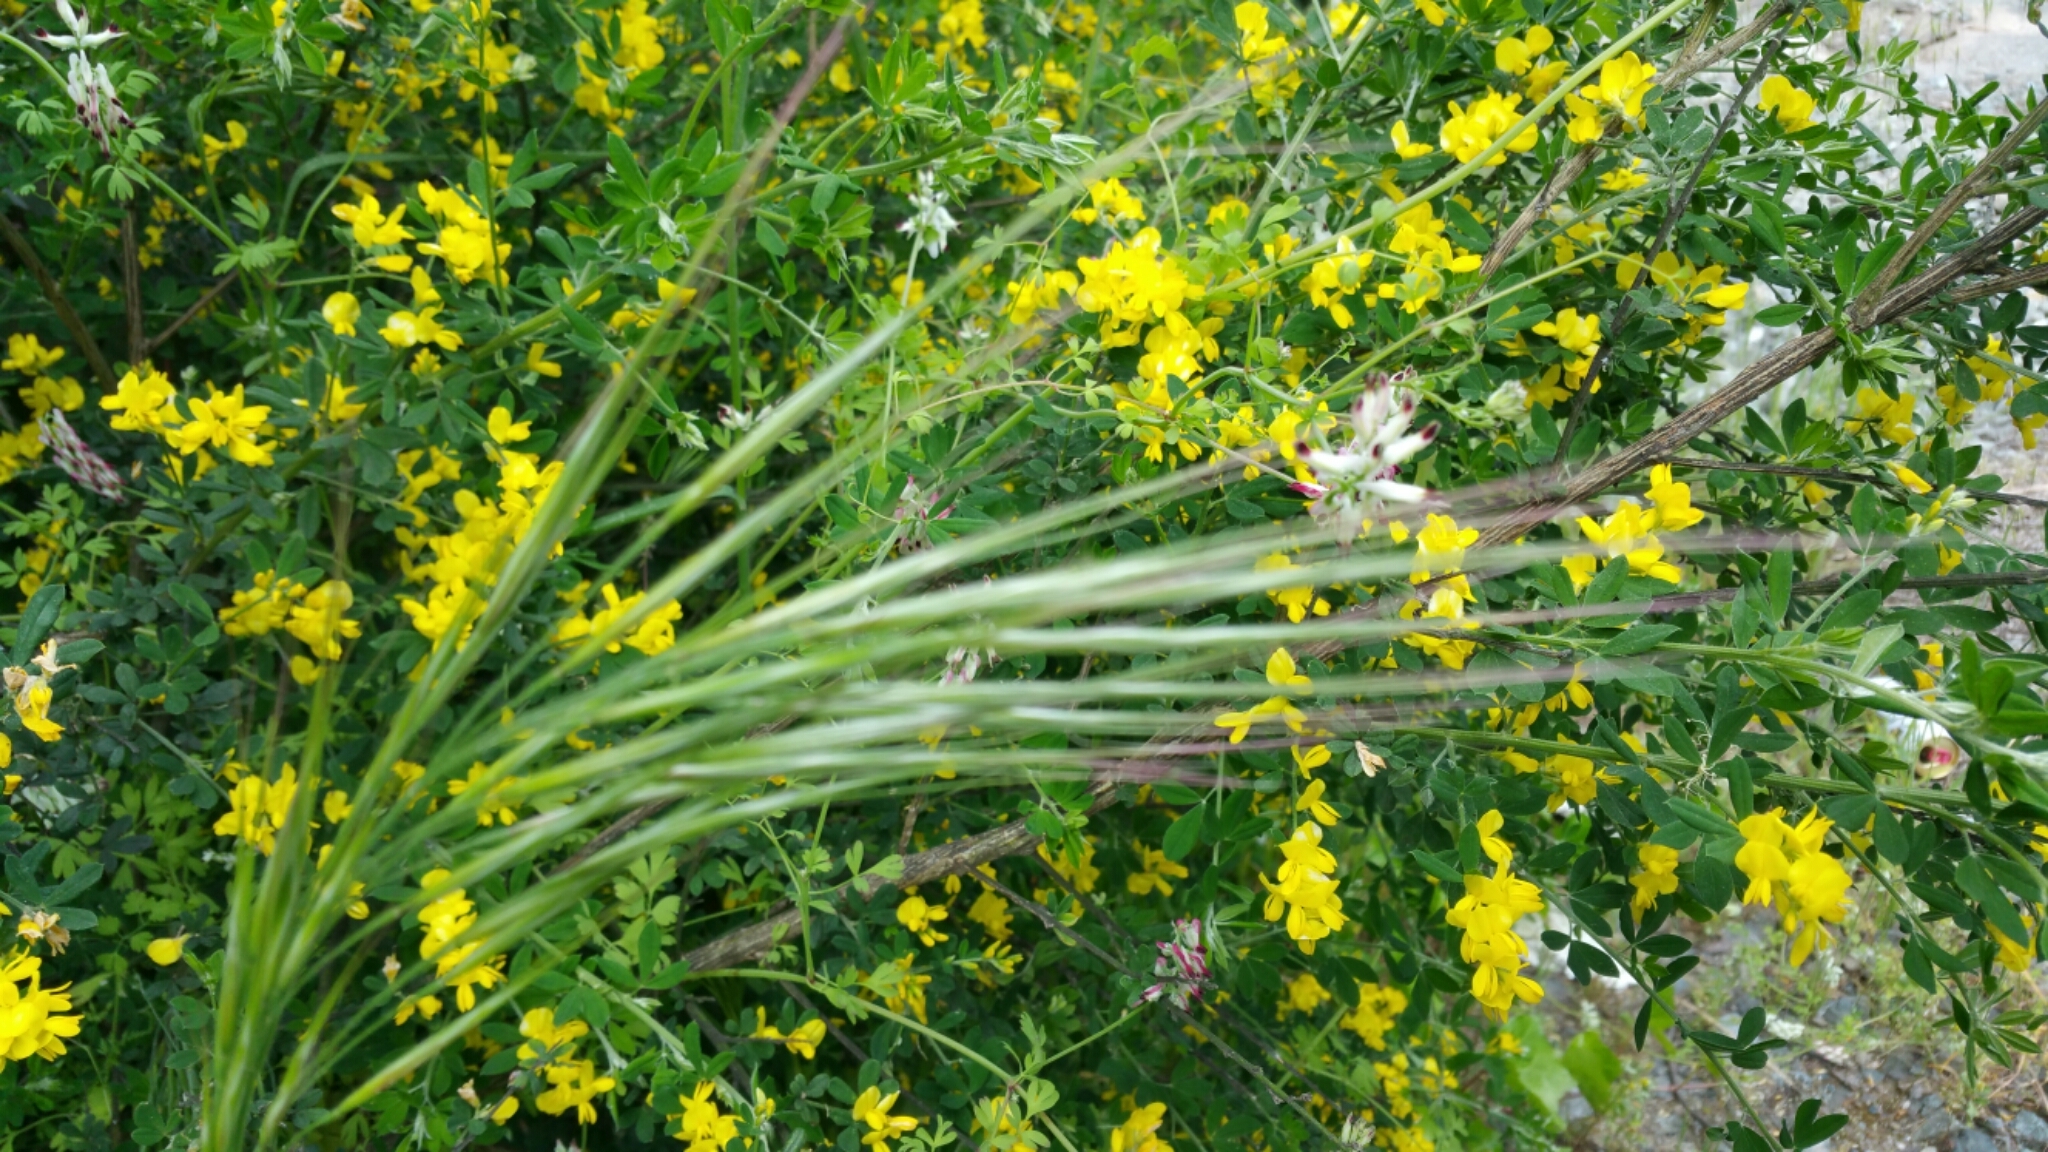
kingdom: Plantae
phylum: Tracheophyta
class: Liliopsida
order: Poales
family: Poaceae
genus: Bromus
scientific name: Bromus diandrus
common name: Ripgut brome
